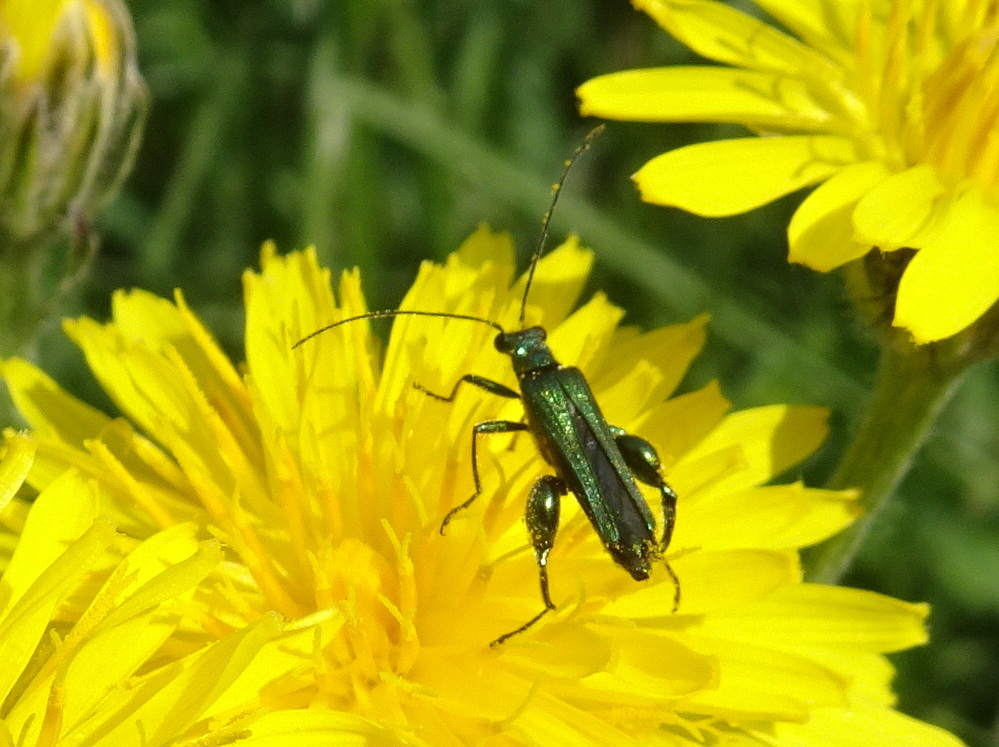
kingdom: Animalia
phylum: Arthropoda
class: Insecta
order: Coleoptera
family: Oedemeridae
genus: Oedemera
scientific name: Oedemera nobilis
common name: Swollen-thighed beetle
